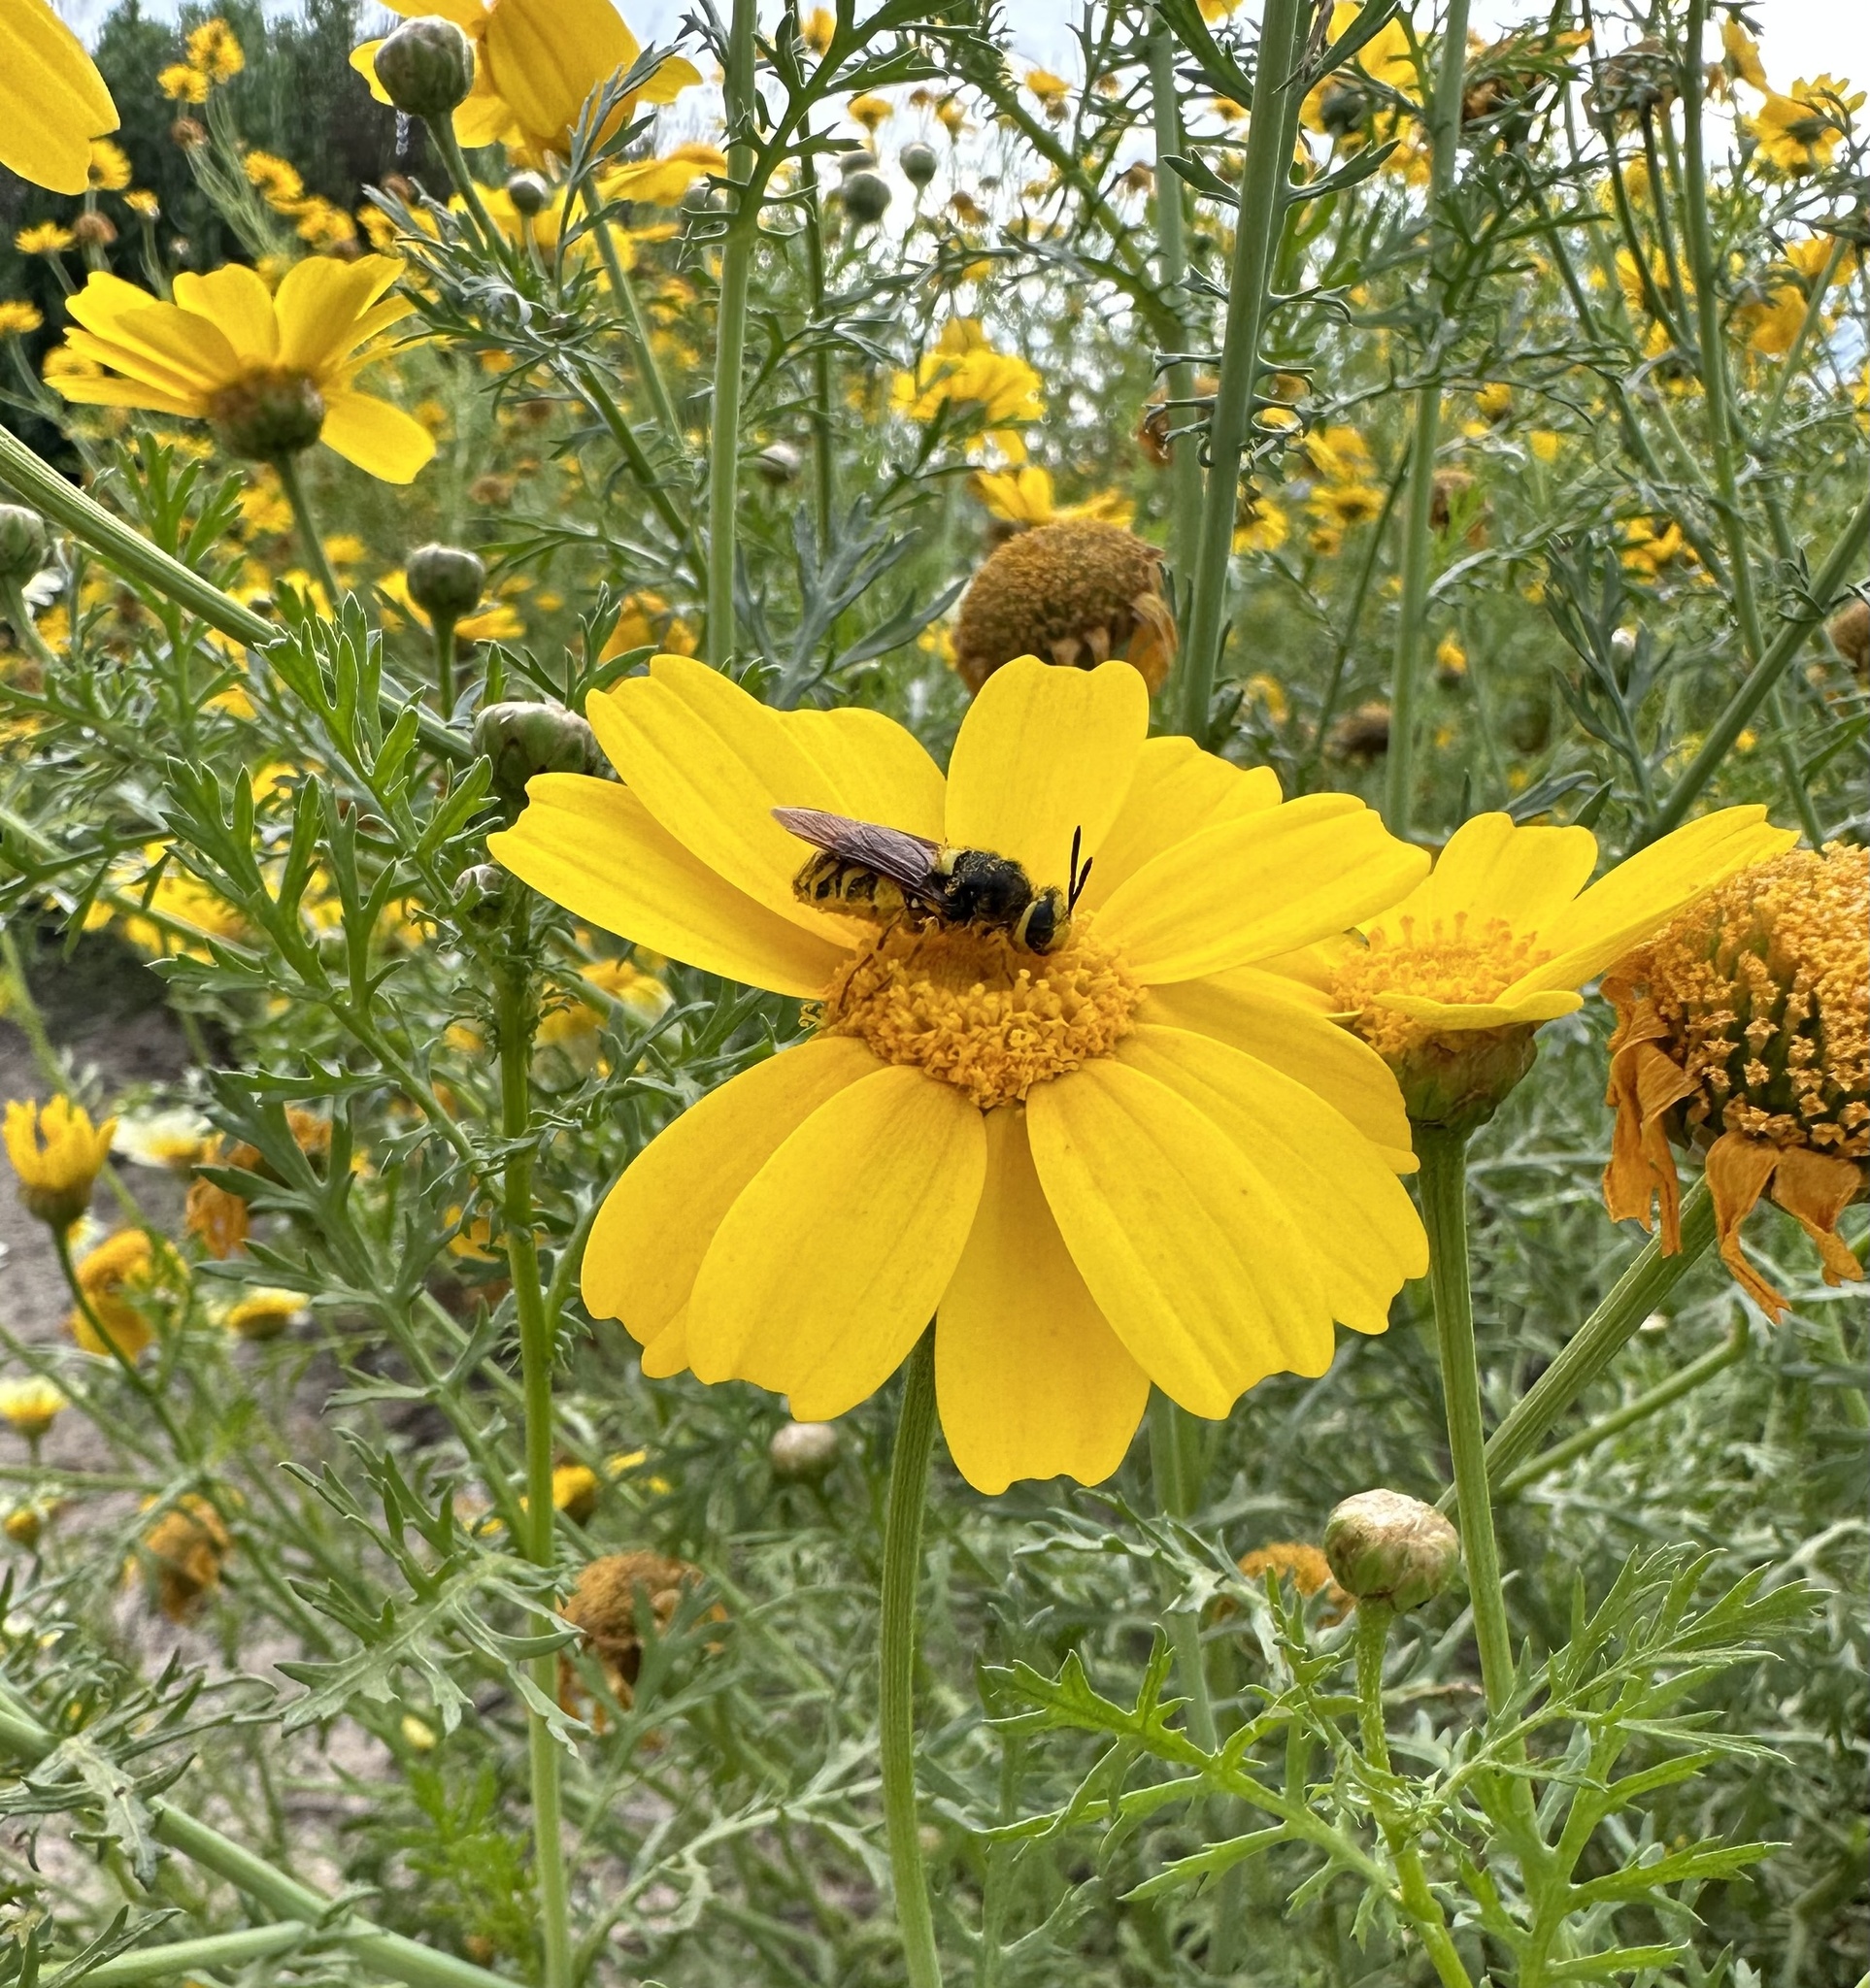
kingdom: Animalia
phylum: Arthropoda
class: Insecta
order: Diptera
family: Stratiomyidae
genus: Stratiomys
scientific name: Stratiomys maculosa
